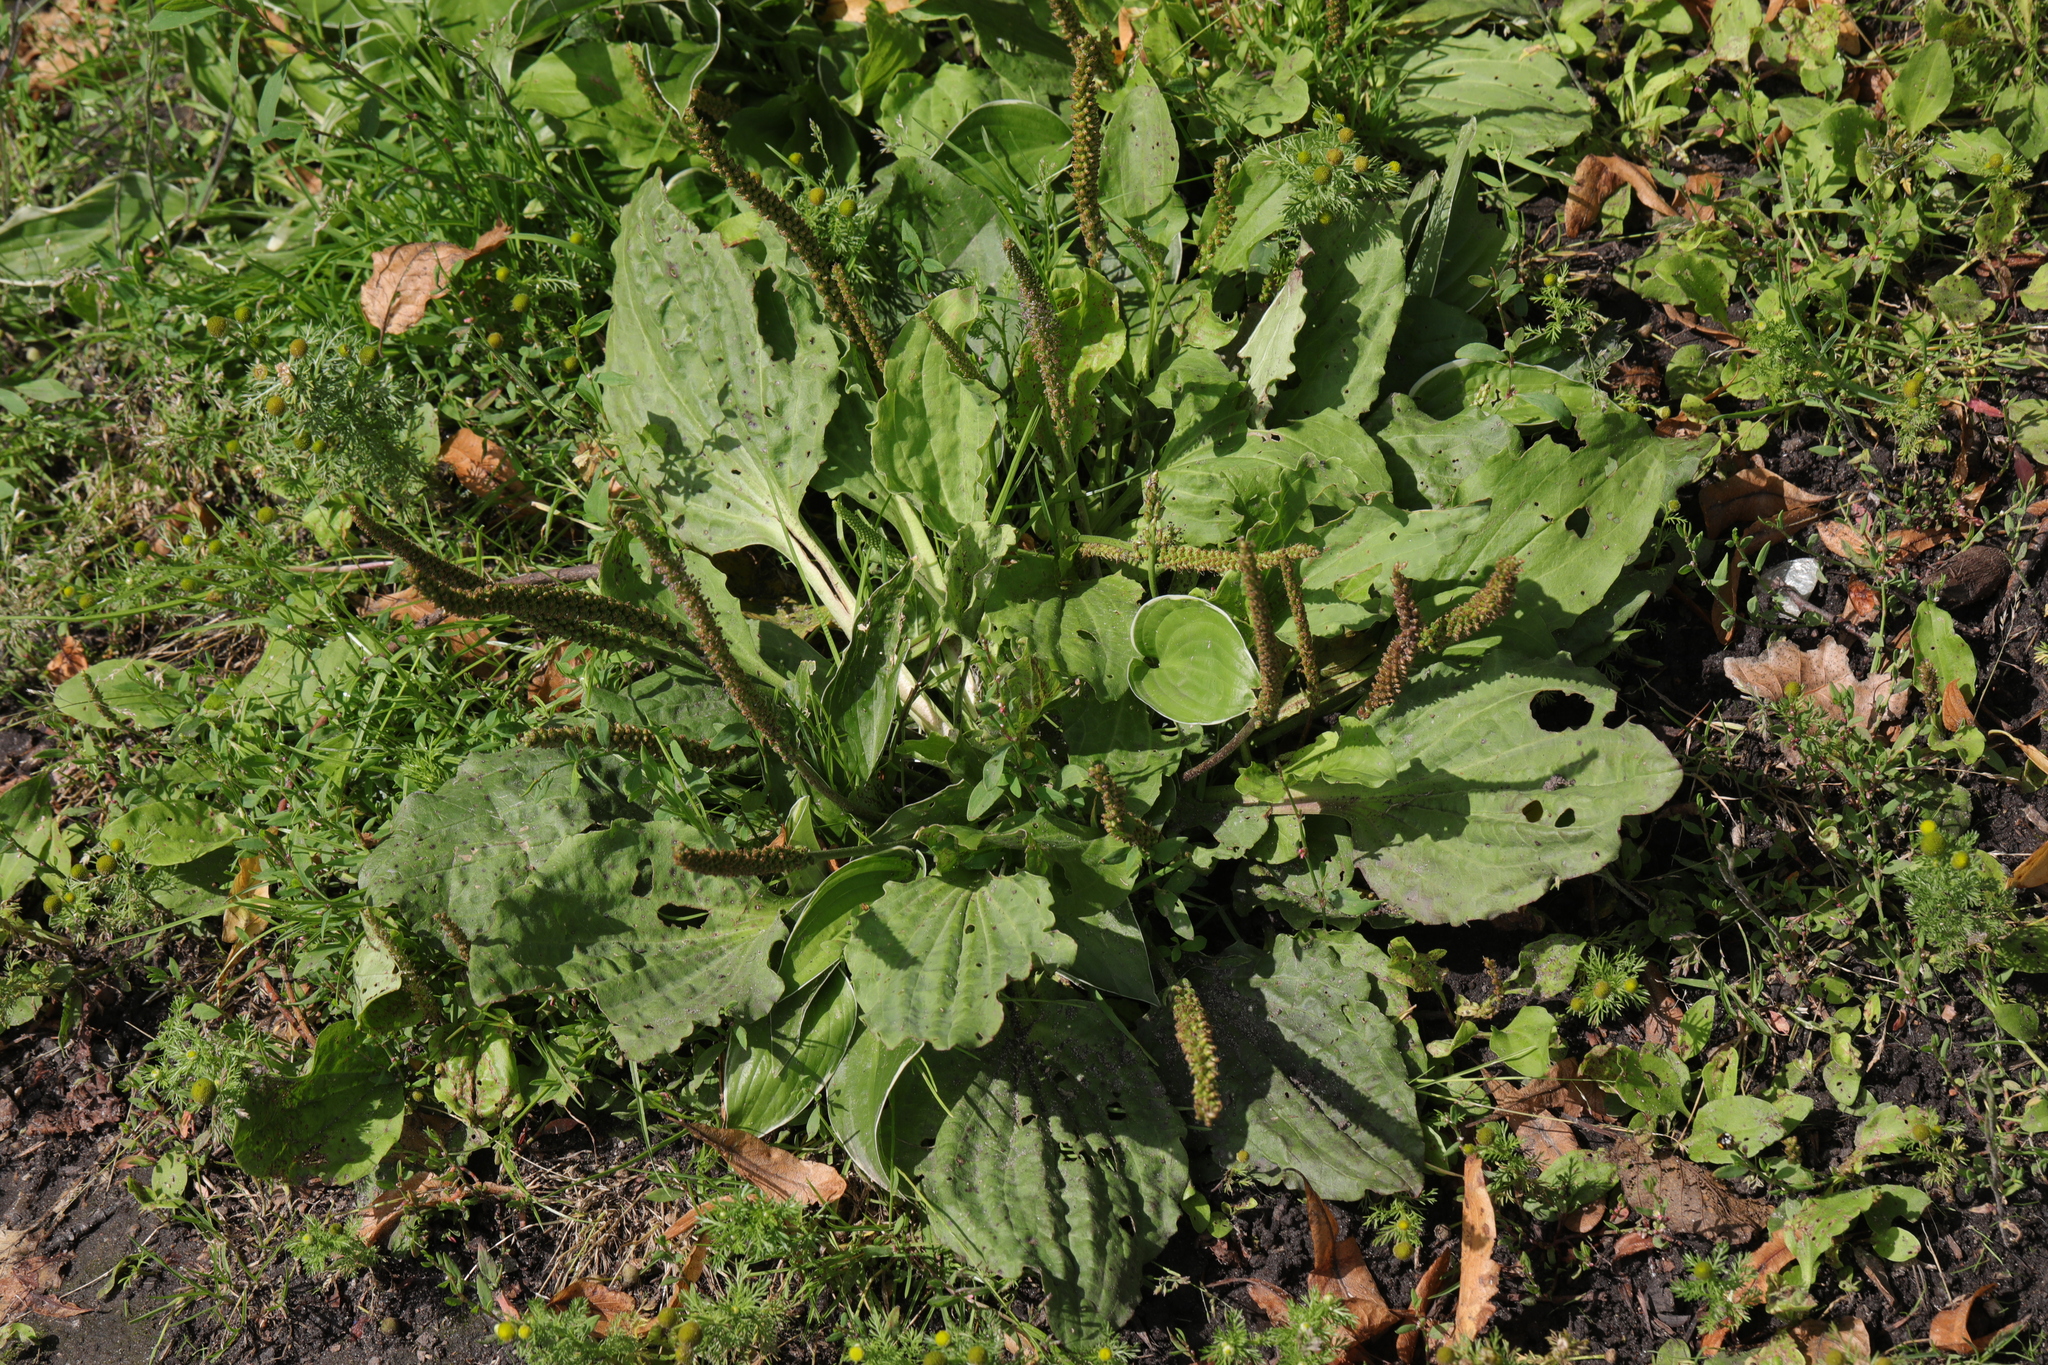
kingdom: Plantae
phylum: Tracheophyta
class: Magnoliopsida
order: Lamiales
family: Plantaginaceae
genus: Plantago
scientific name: Plantago major
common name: Common plantain
